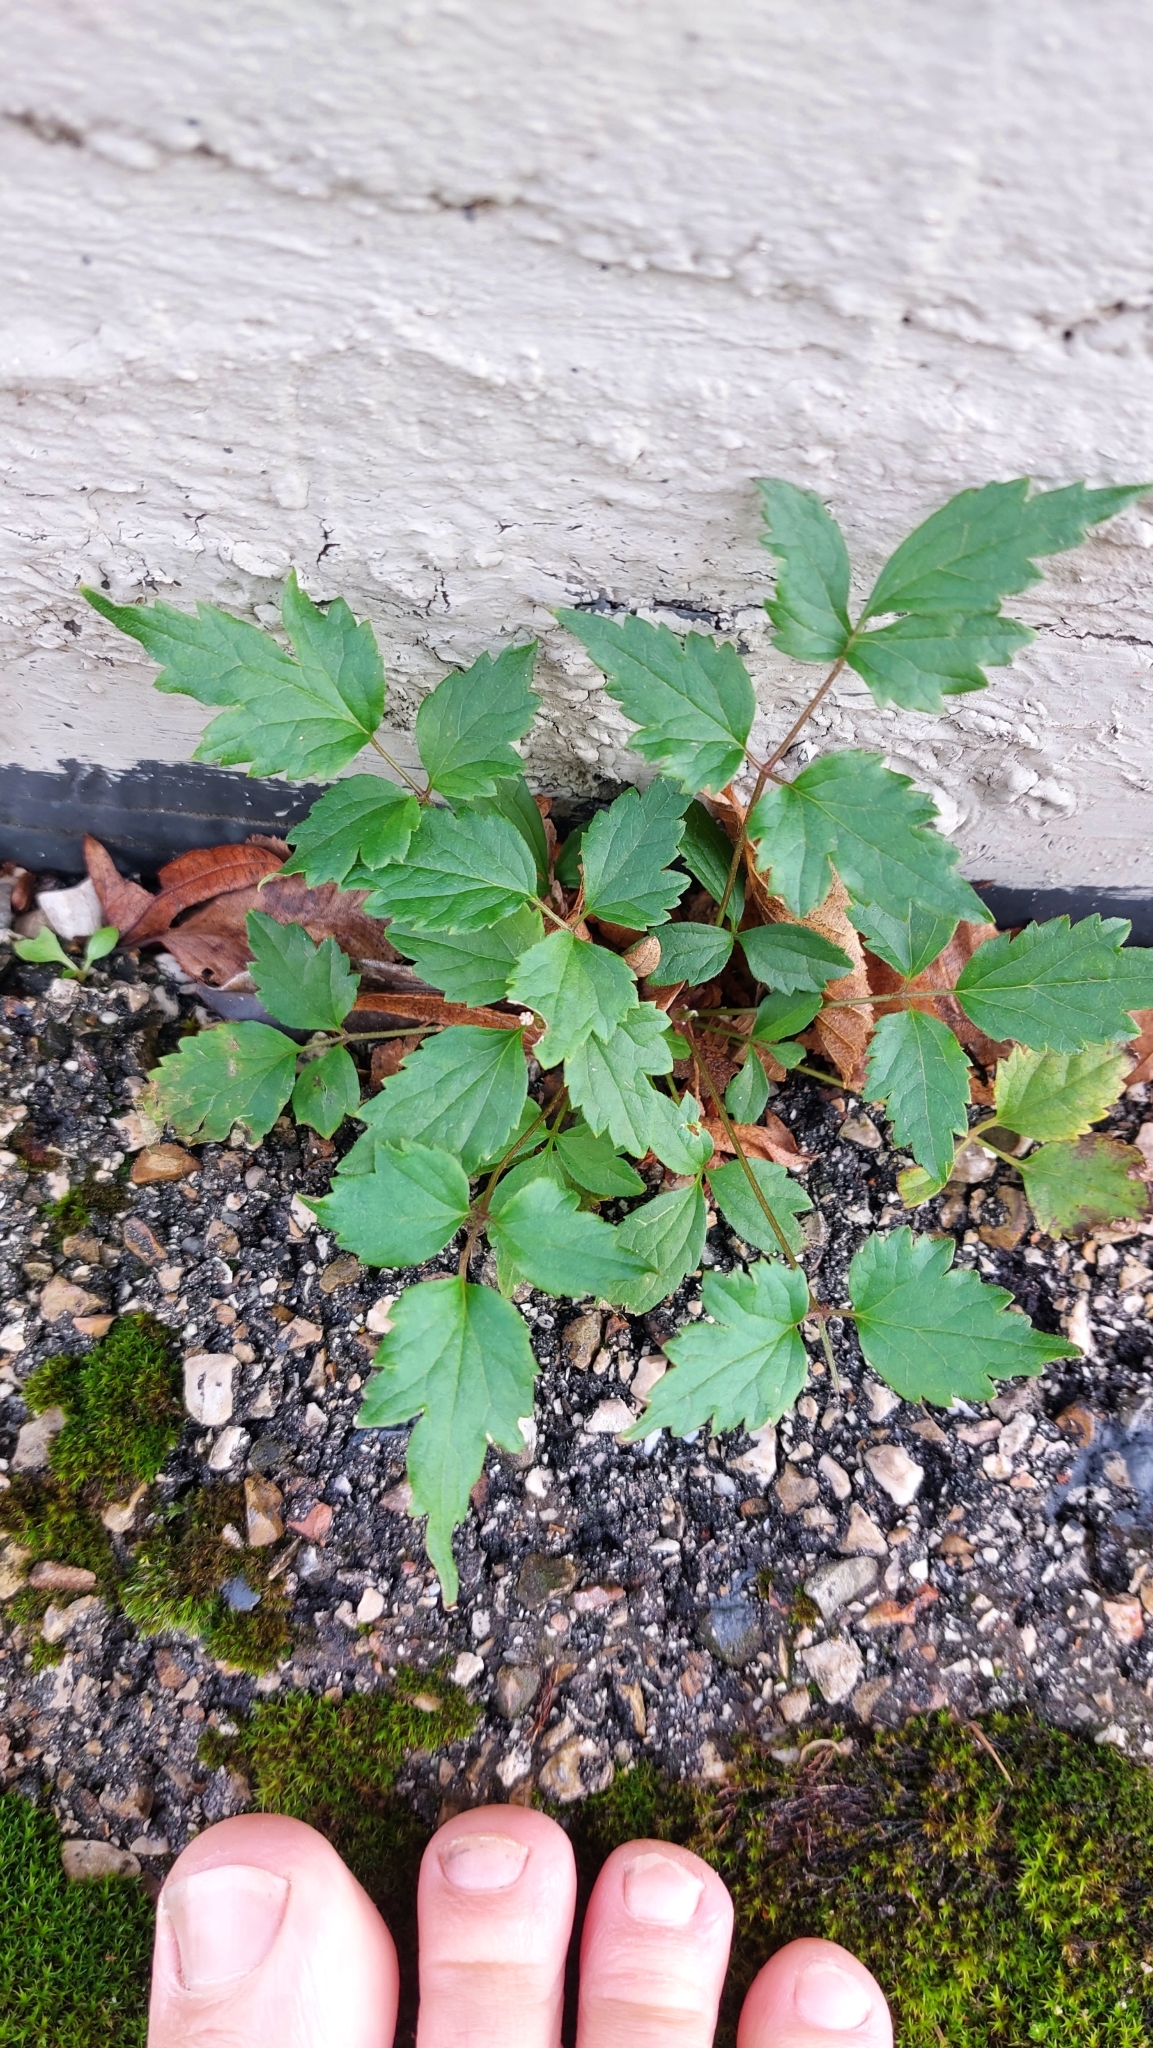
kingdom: Plantae
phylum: Tracheophyta
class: Magnoliopsida
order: Ranunculales
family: Ranunculaceae
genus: Clematis
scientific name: Clematis vitalba
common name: Evergreen clematis
